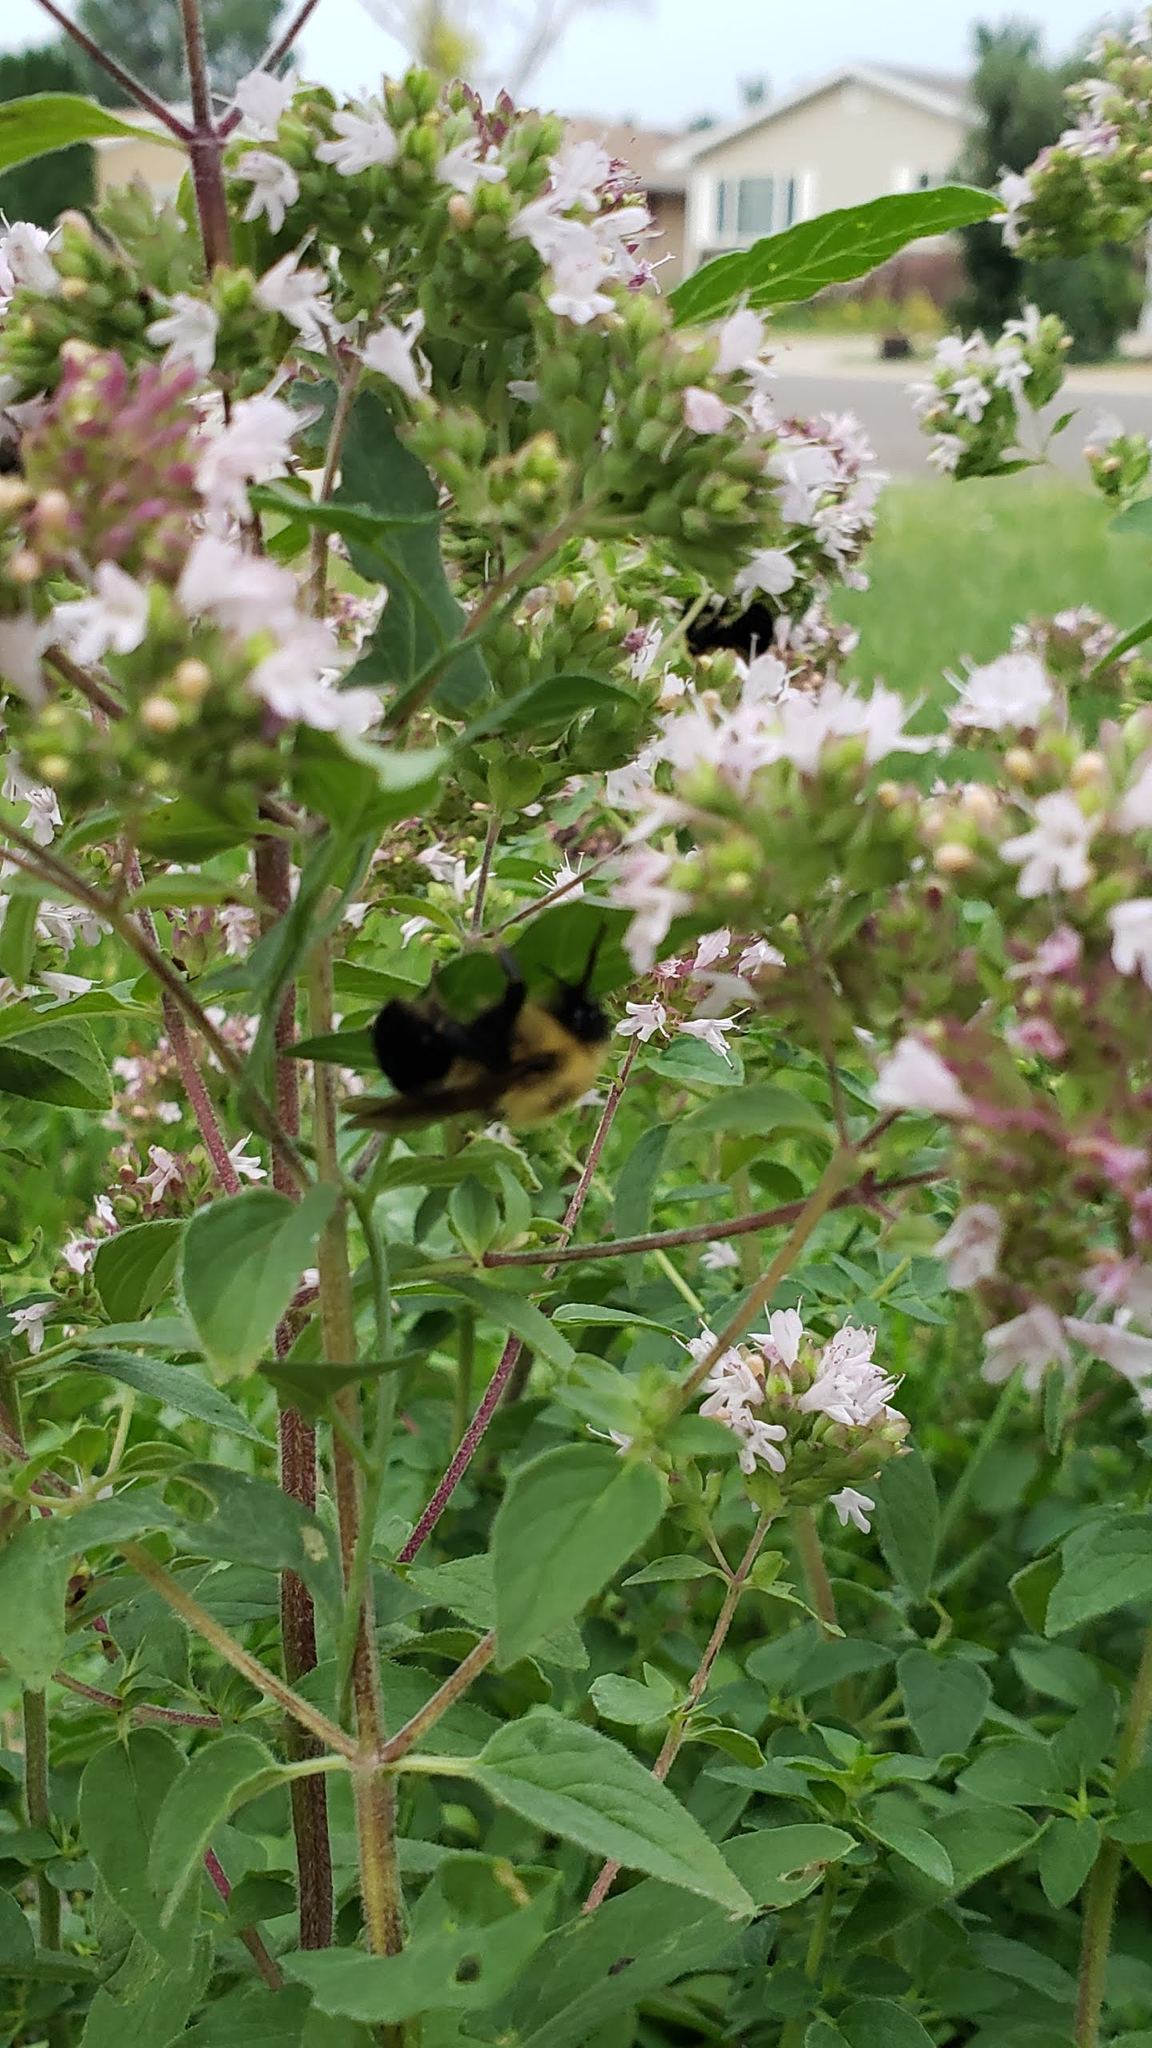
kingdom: Animalia
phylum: Arthropoda
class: Insecta
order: Hymenoptera
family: Apidae
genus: Bombus
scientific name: Bombus bimaculatus
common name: Two-spotted bumble bee
